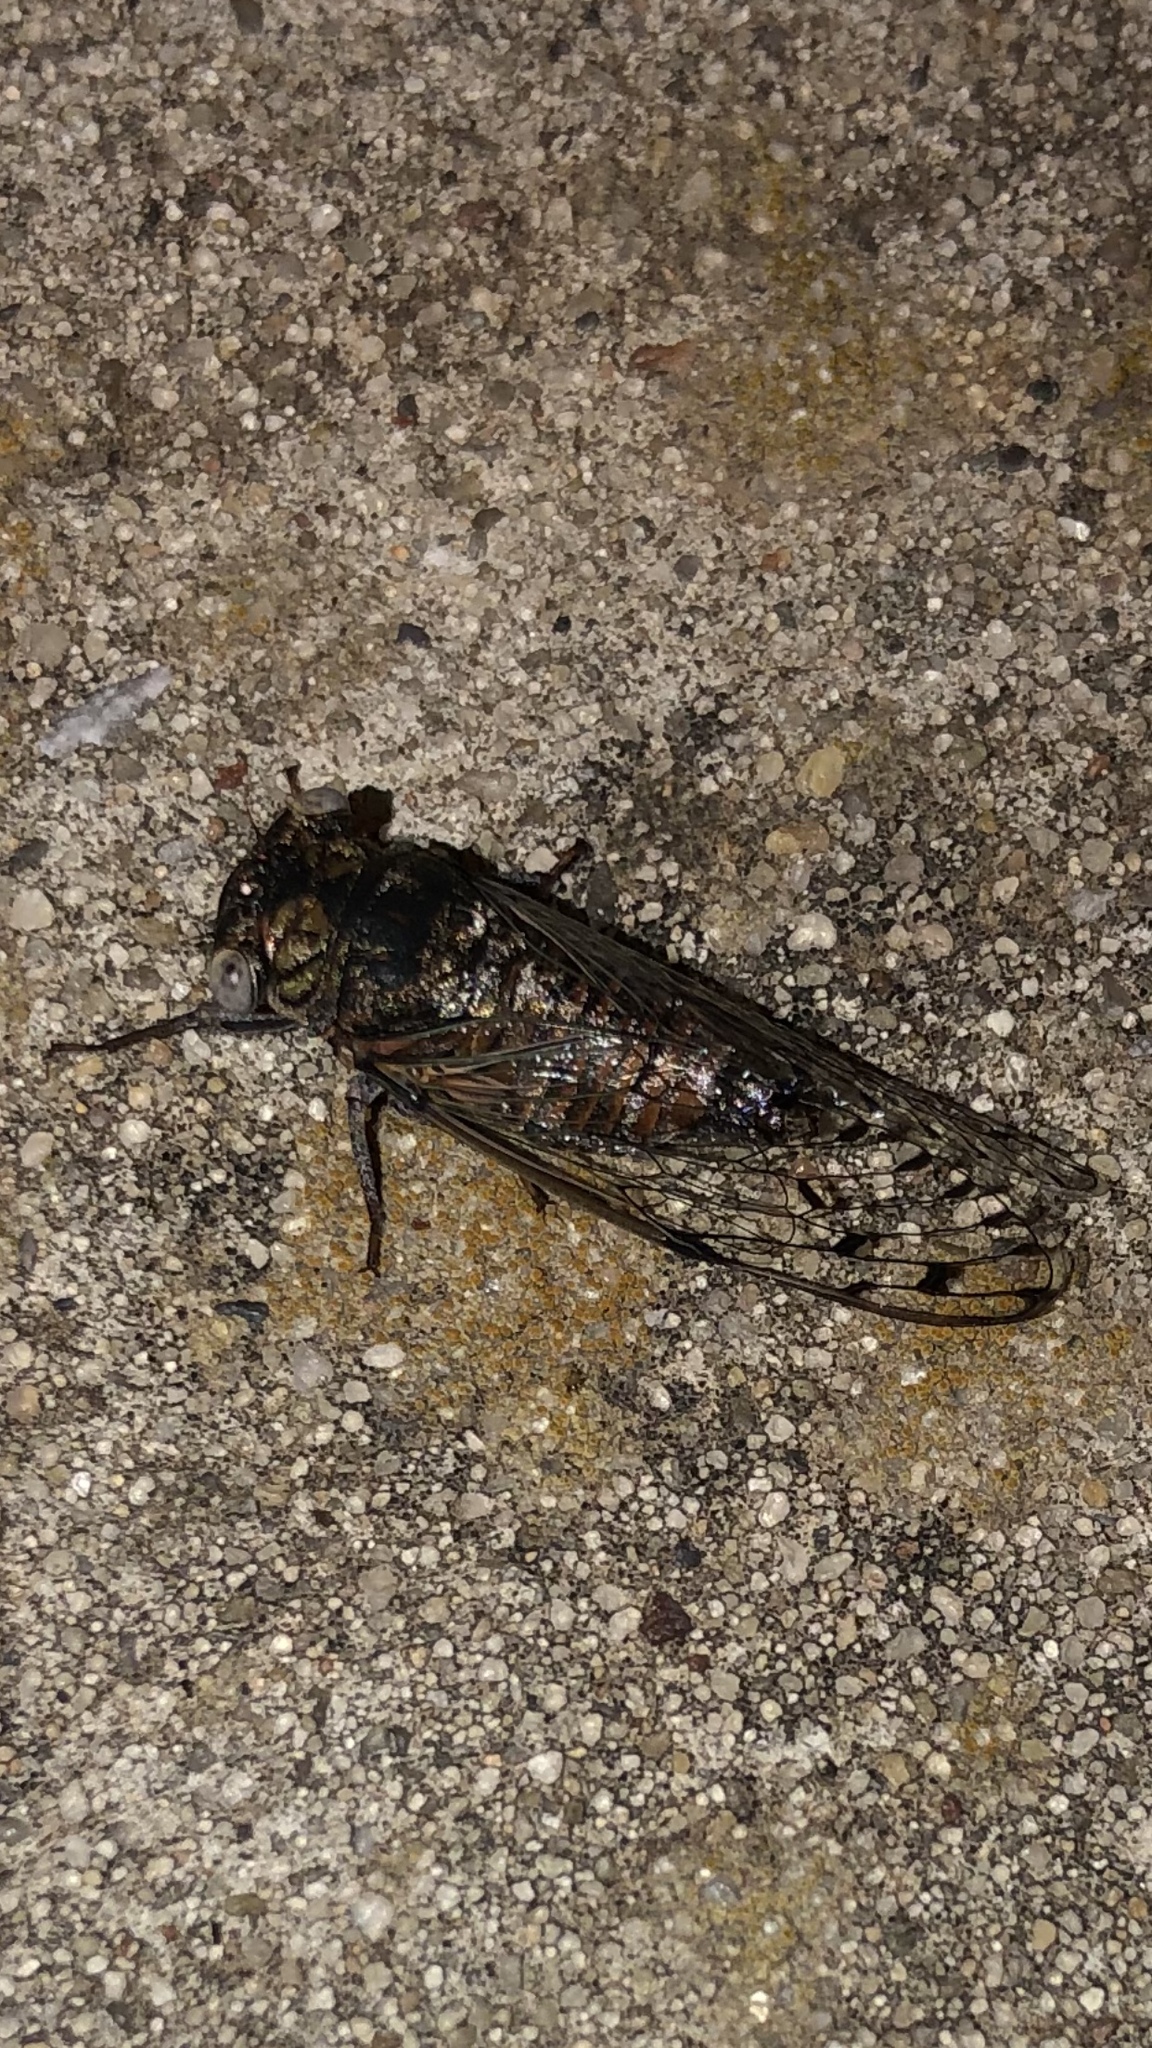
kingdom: Animalia
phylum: Arthropoda
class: Insecta
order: Hemiptera
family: Cicadidae
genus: Pacarina
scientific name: Pacarina puella
